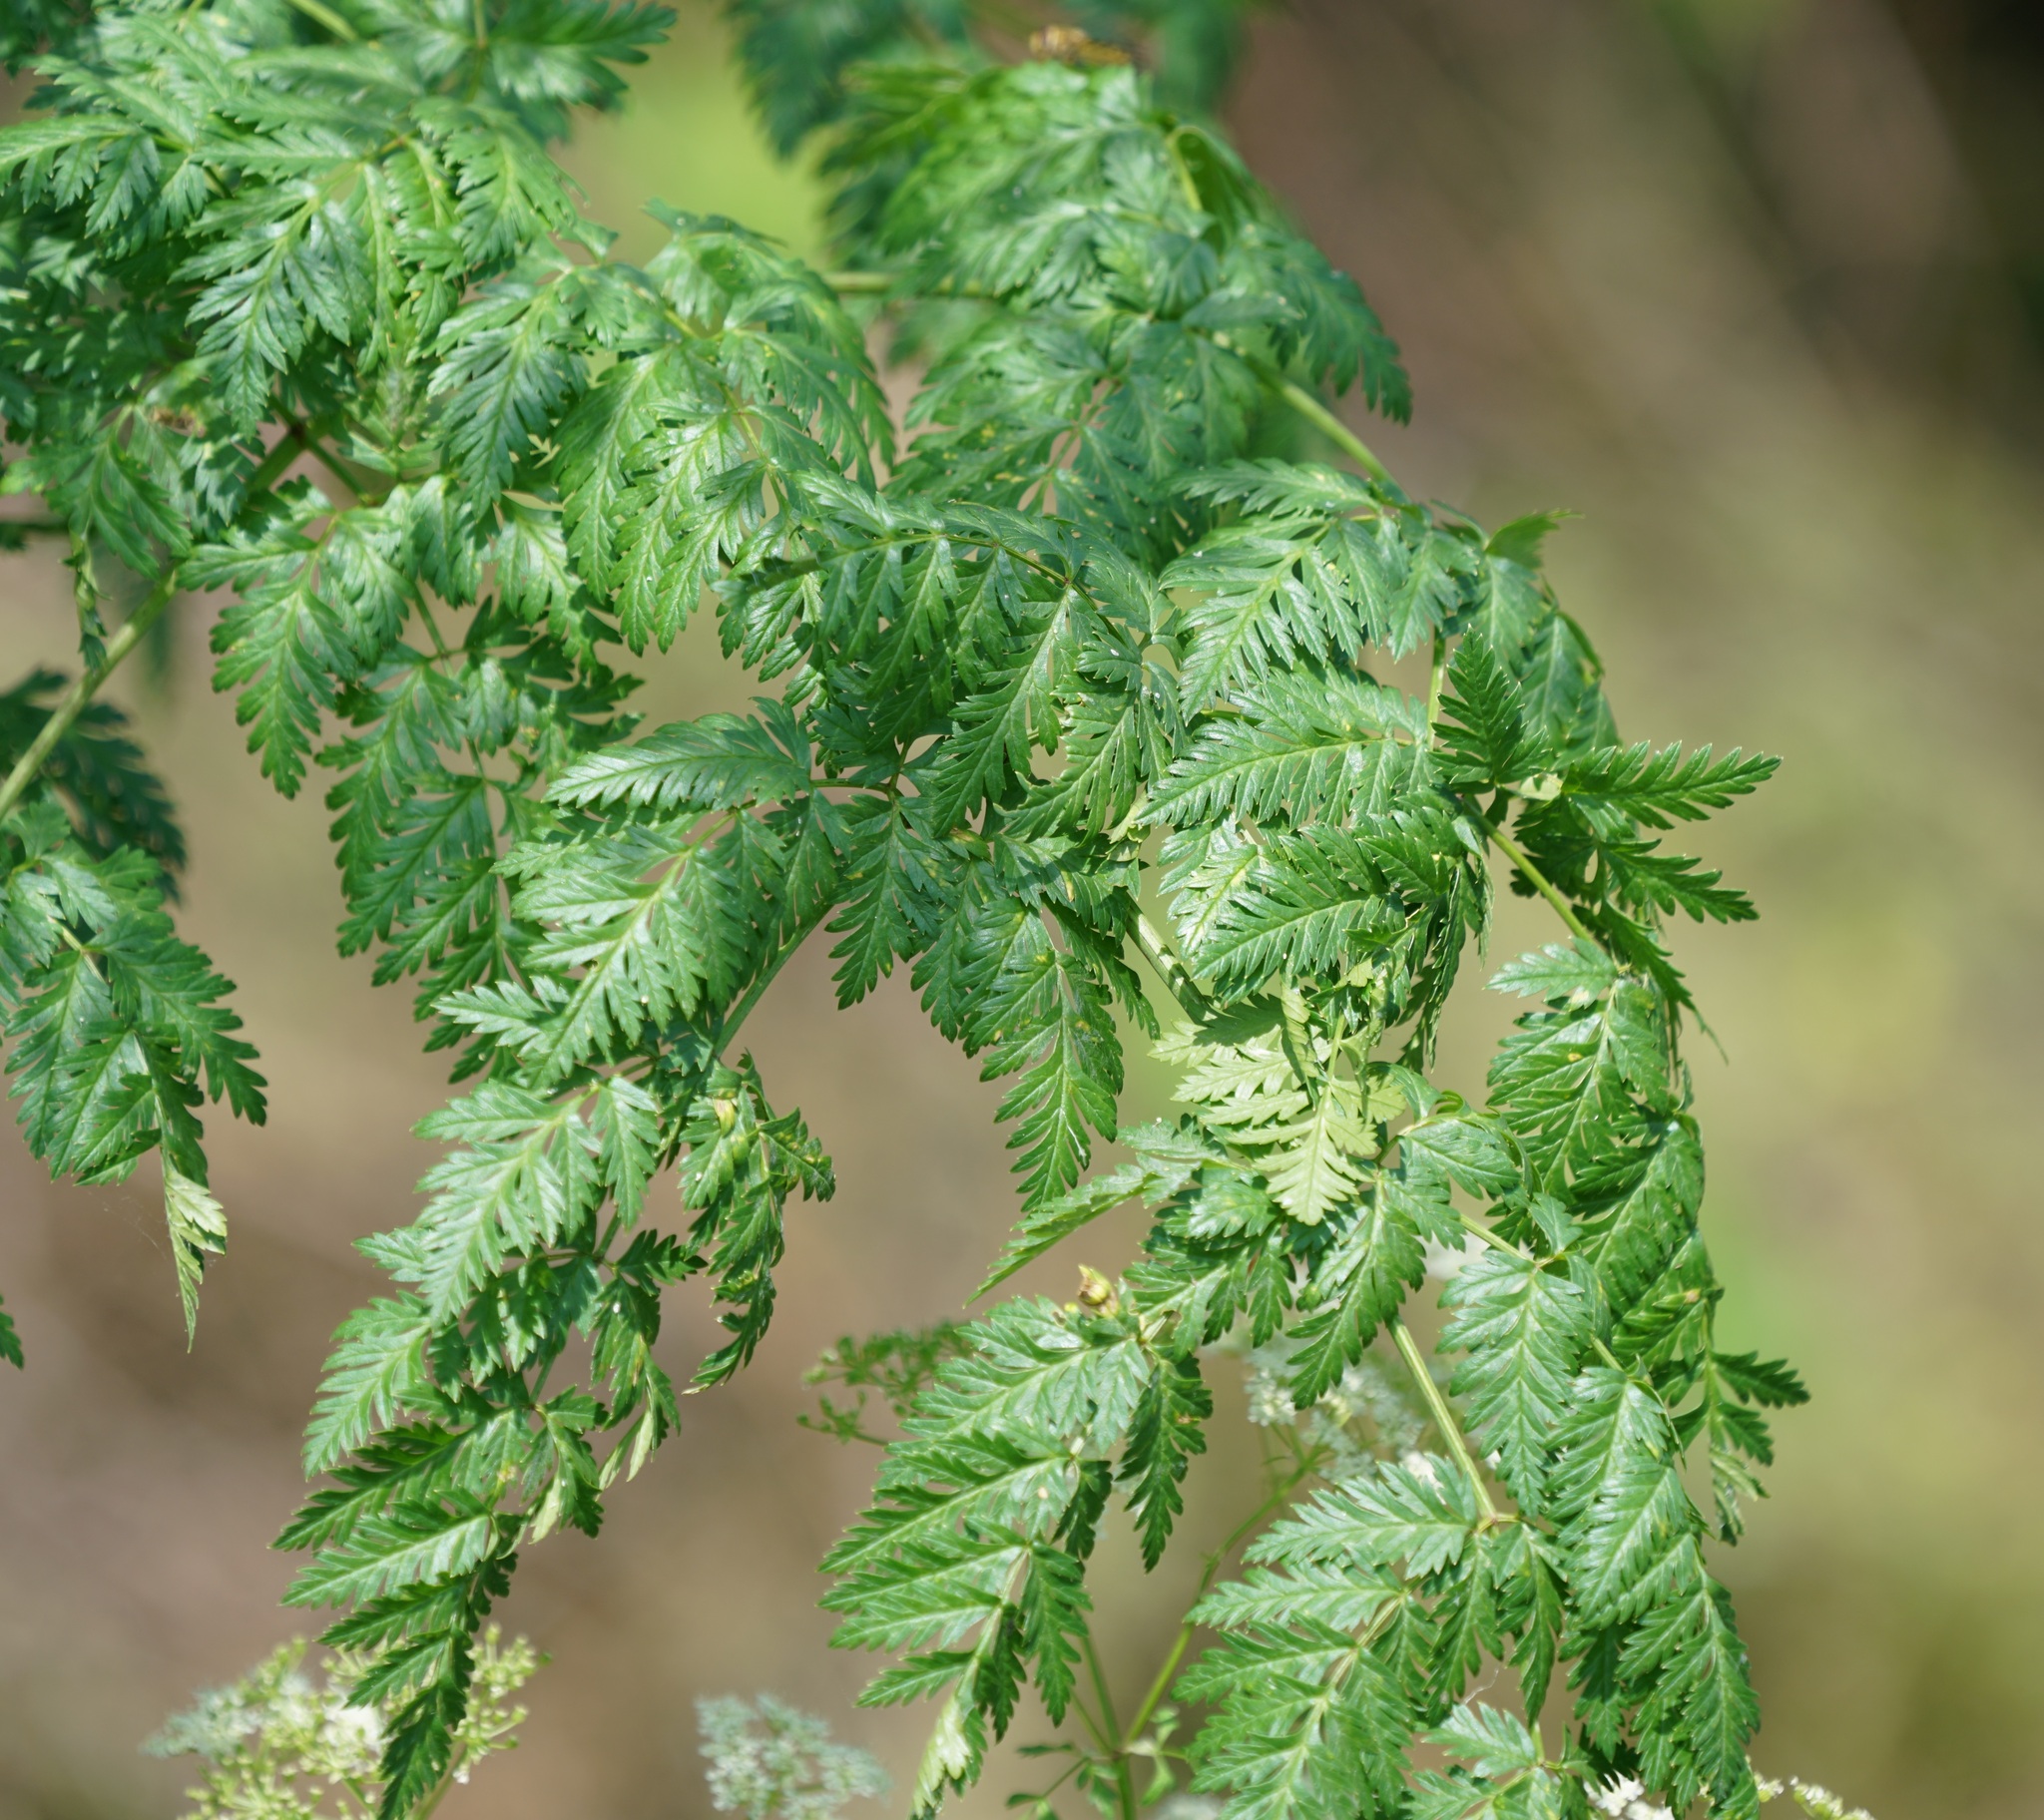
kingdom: Plantae
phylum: Tracheophyta
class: Magnoliopsida
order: Apiales
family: Apiaceae
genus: Conium
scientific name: Conium maculatum
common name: Hemlock
